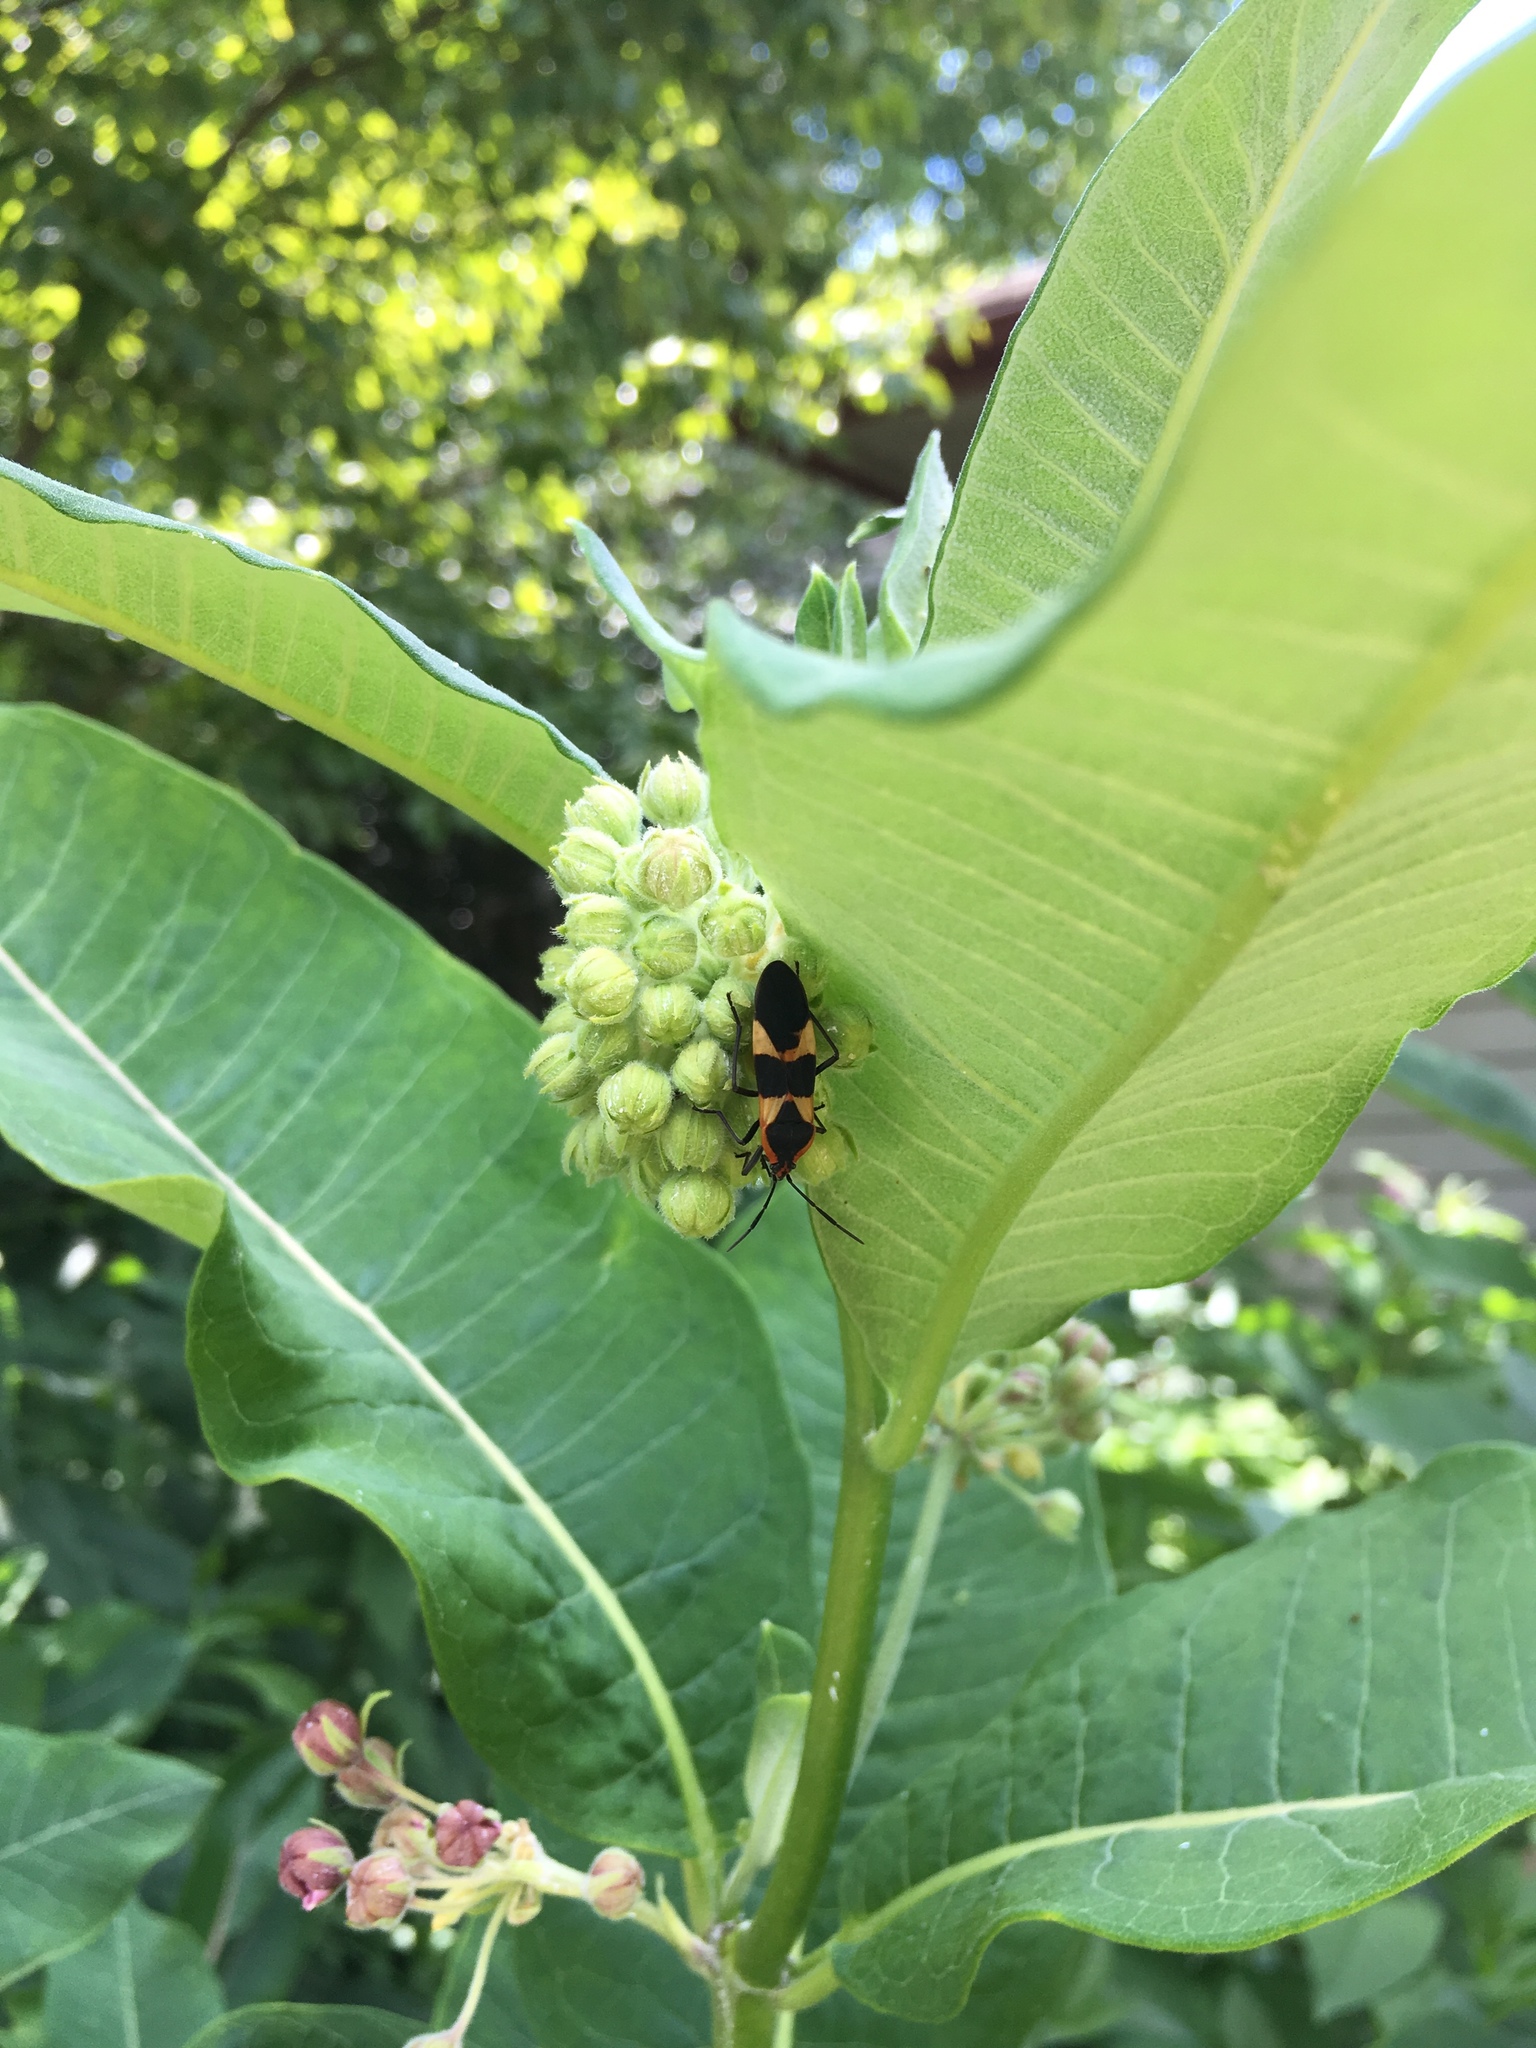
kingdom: Animalia
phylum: Arthropoda
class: Insecta
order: Hemiptera
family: Lygaeidae
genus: Oncopeltus
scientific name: Oncopeltus fasciatus
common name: Large milkweed bug
